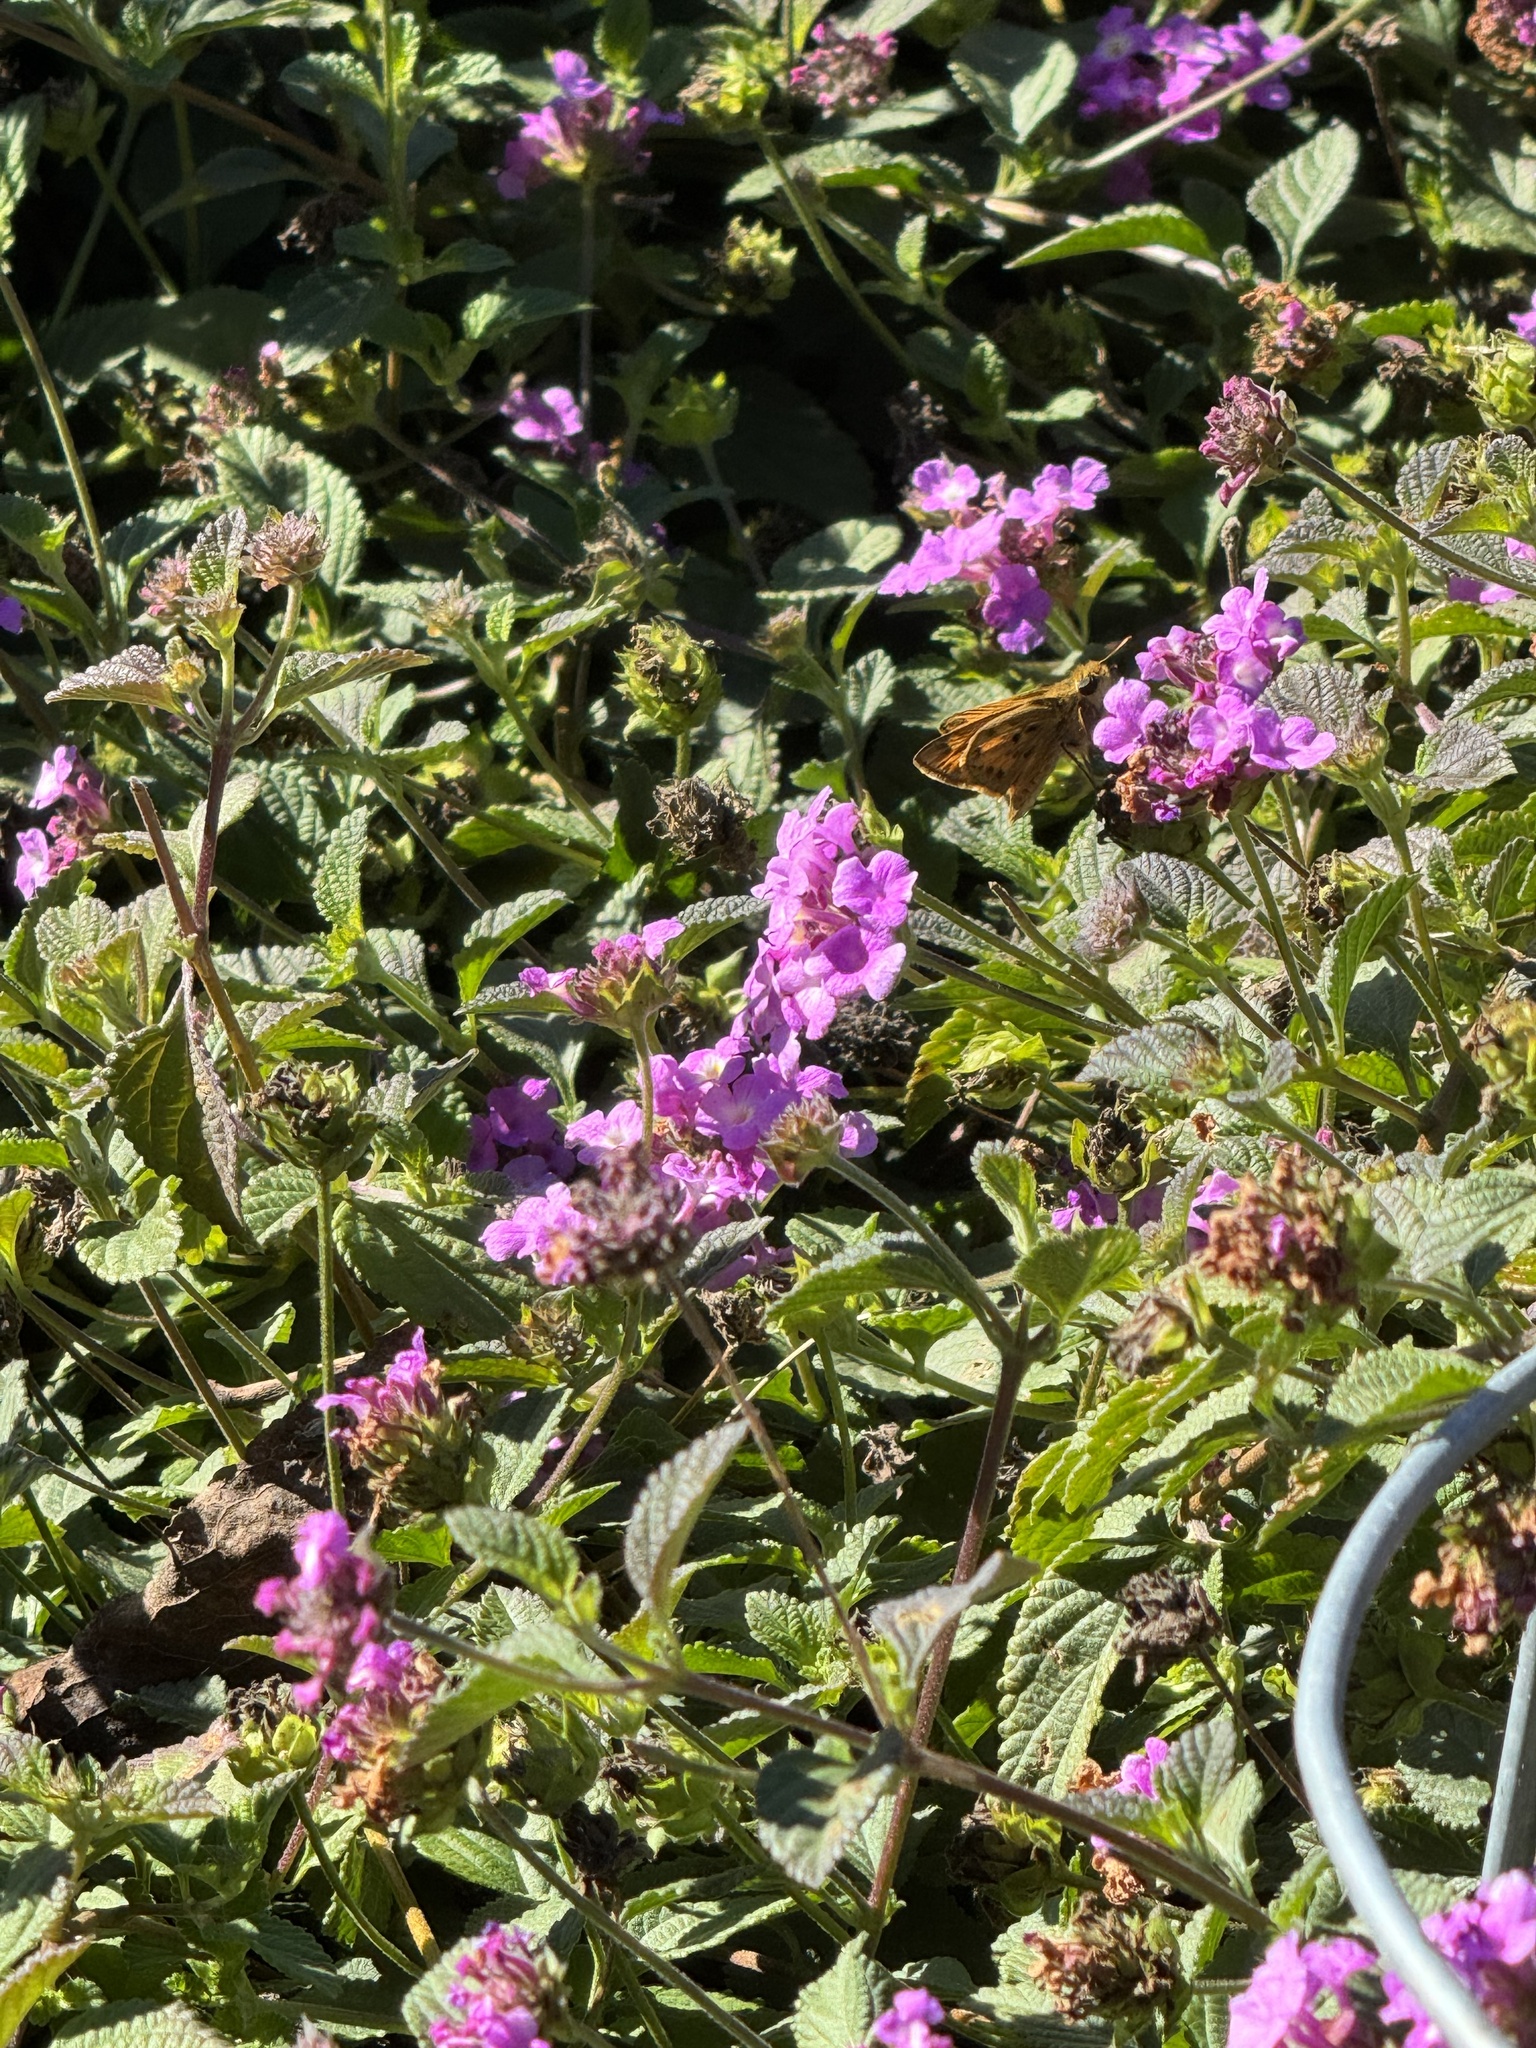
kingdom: Animalia
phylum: Arthropoda
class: Insecta
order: Lepidoptera
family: Hesperiidae
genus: Hylephila
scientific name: Hylephila phyleus
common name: Fiery skipper
